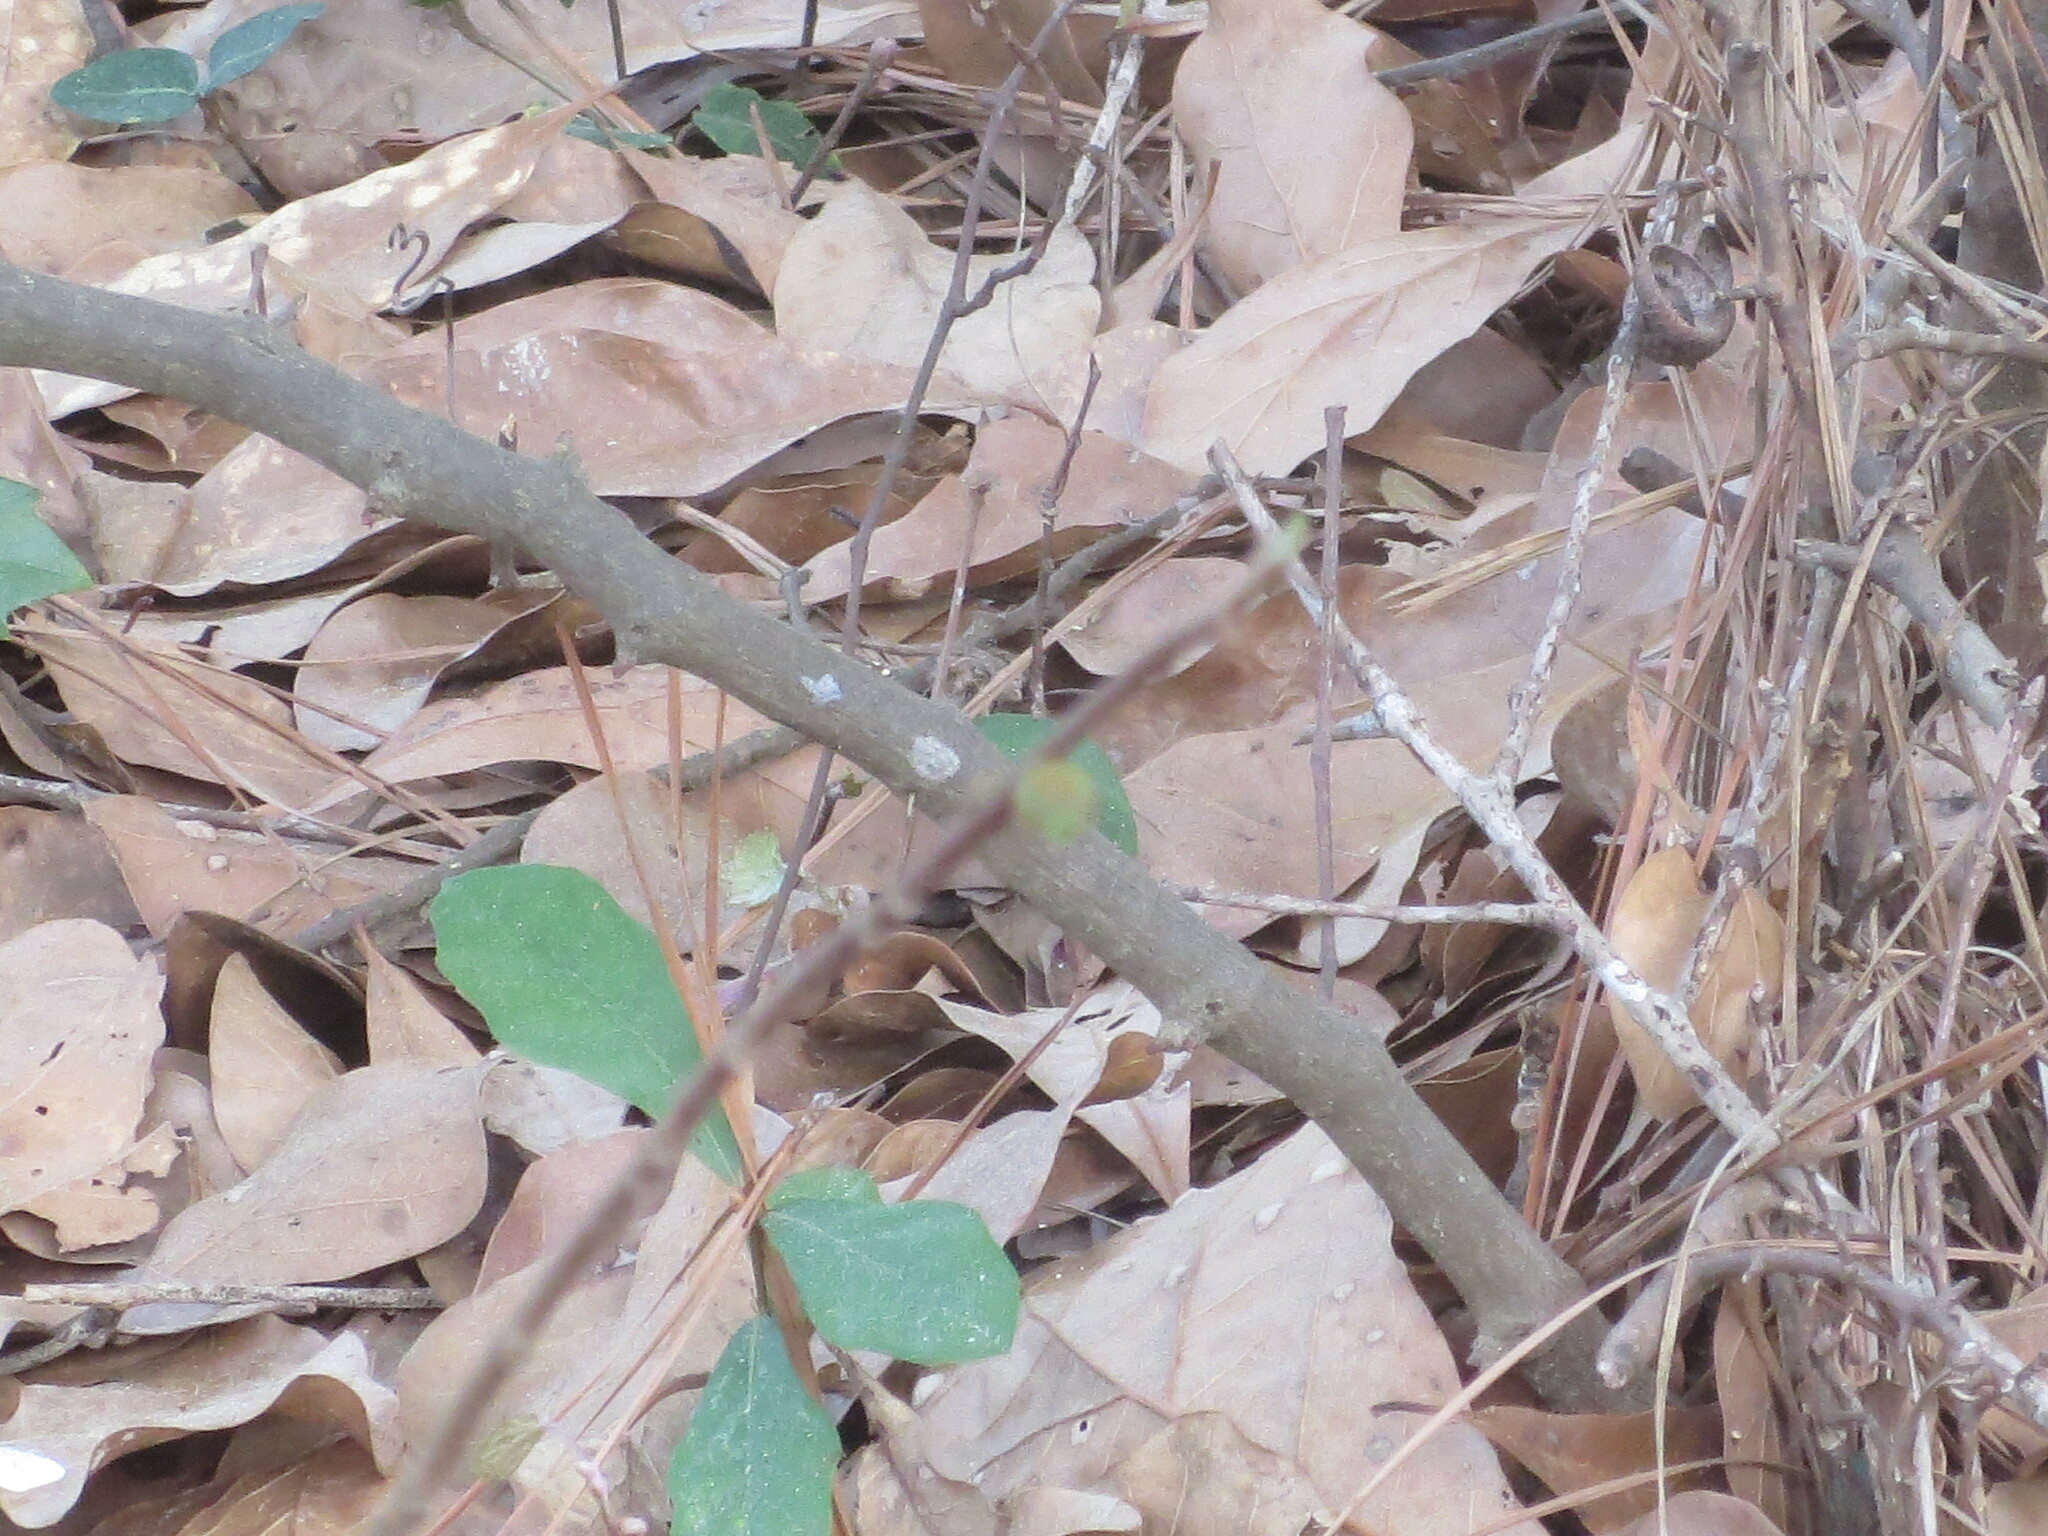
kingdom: Plantae
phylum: Tracheophyta
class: Magnoliopsida
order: Magnoliales
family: Annonaceae
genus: Asimina
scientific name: Asimina parviflora
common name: Dwarf pawpaw
